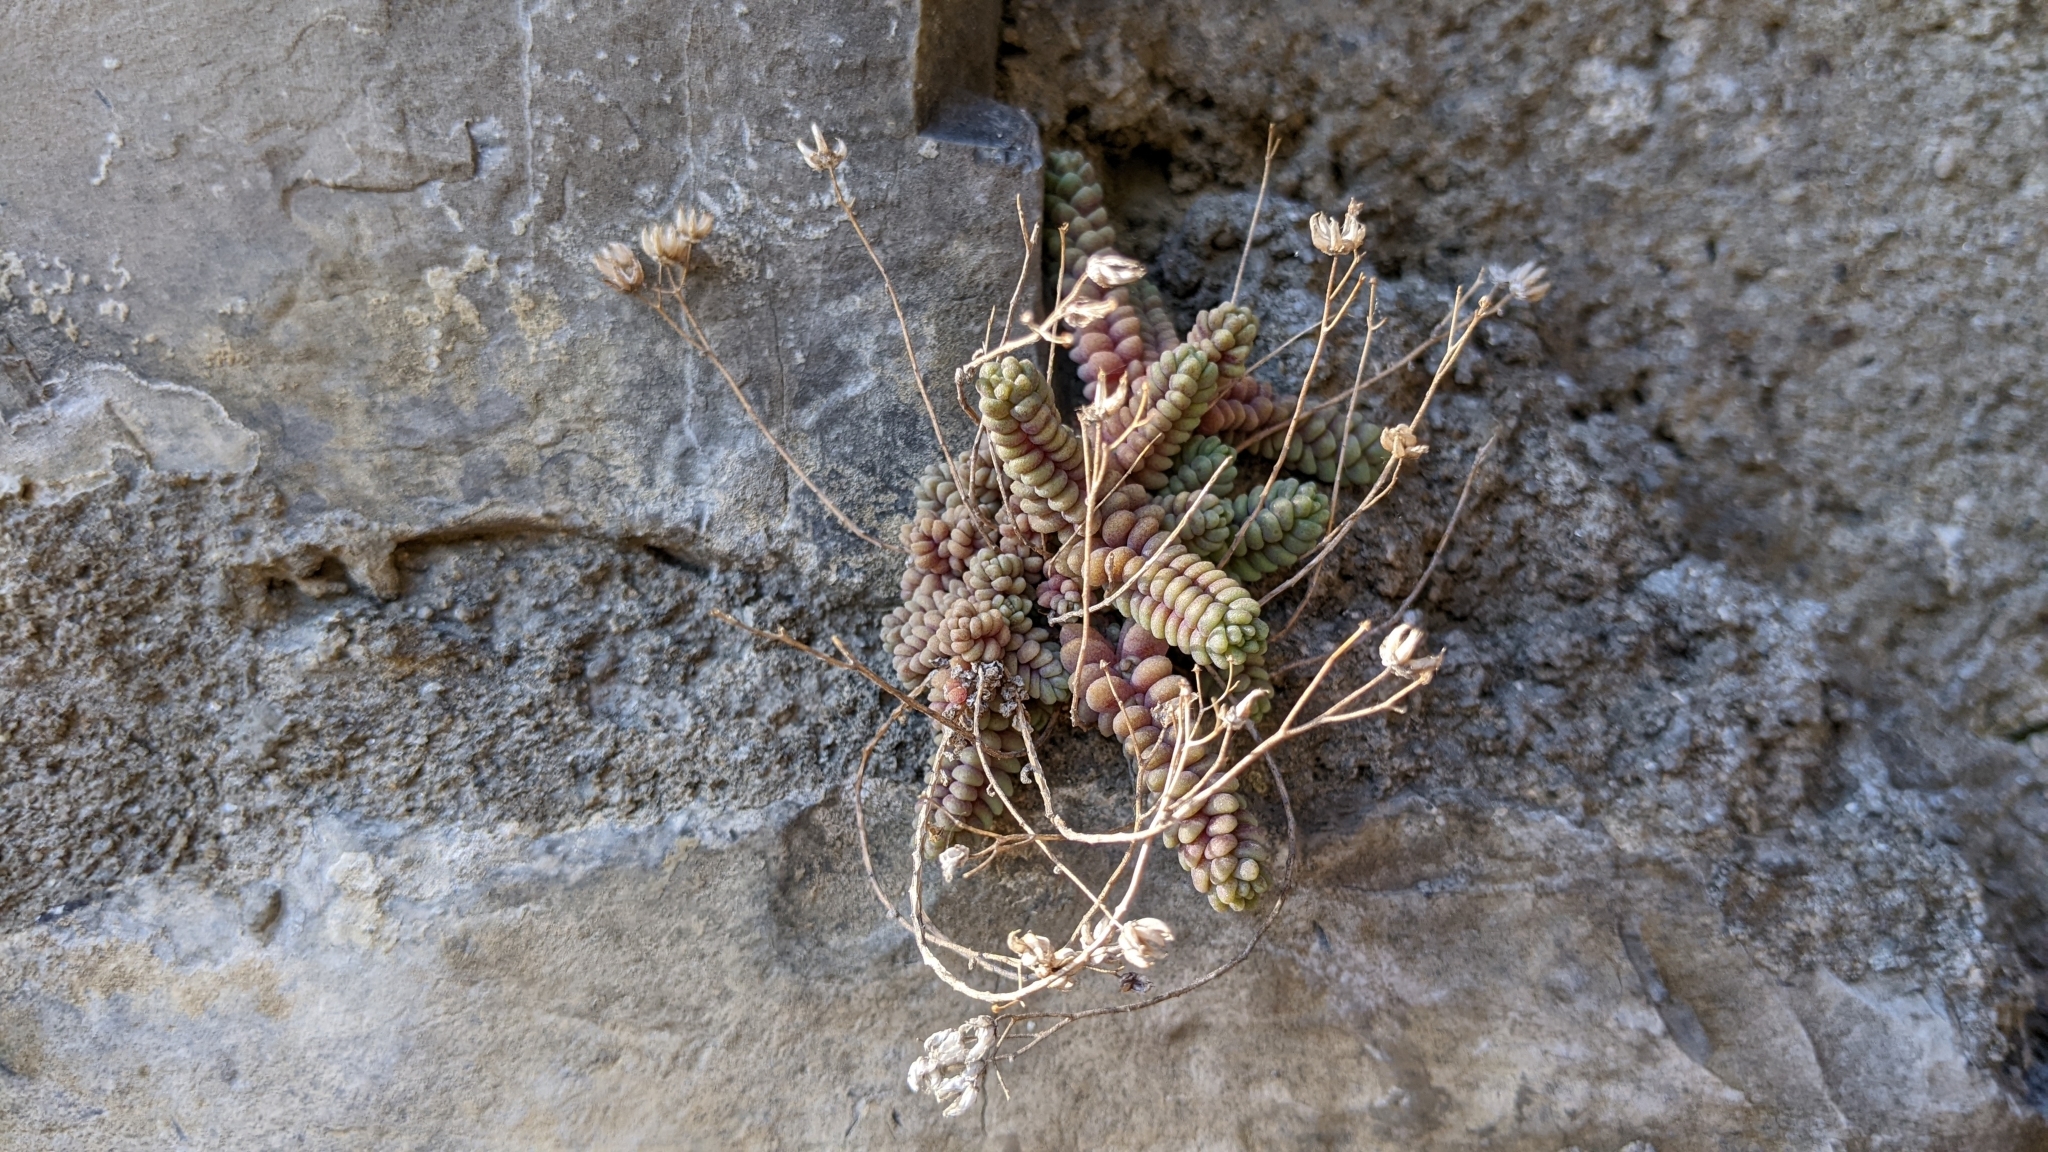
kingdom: Plantae
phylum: Tracheophyta
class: Magnoliopsida
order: Saxifragales
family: Crassulaceae
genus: Sedum
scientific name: Sedum dasyphyllum
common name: Thick-leaf stonecrop
